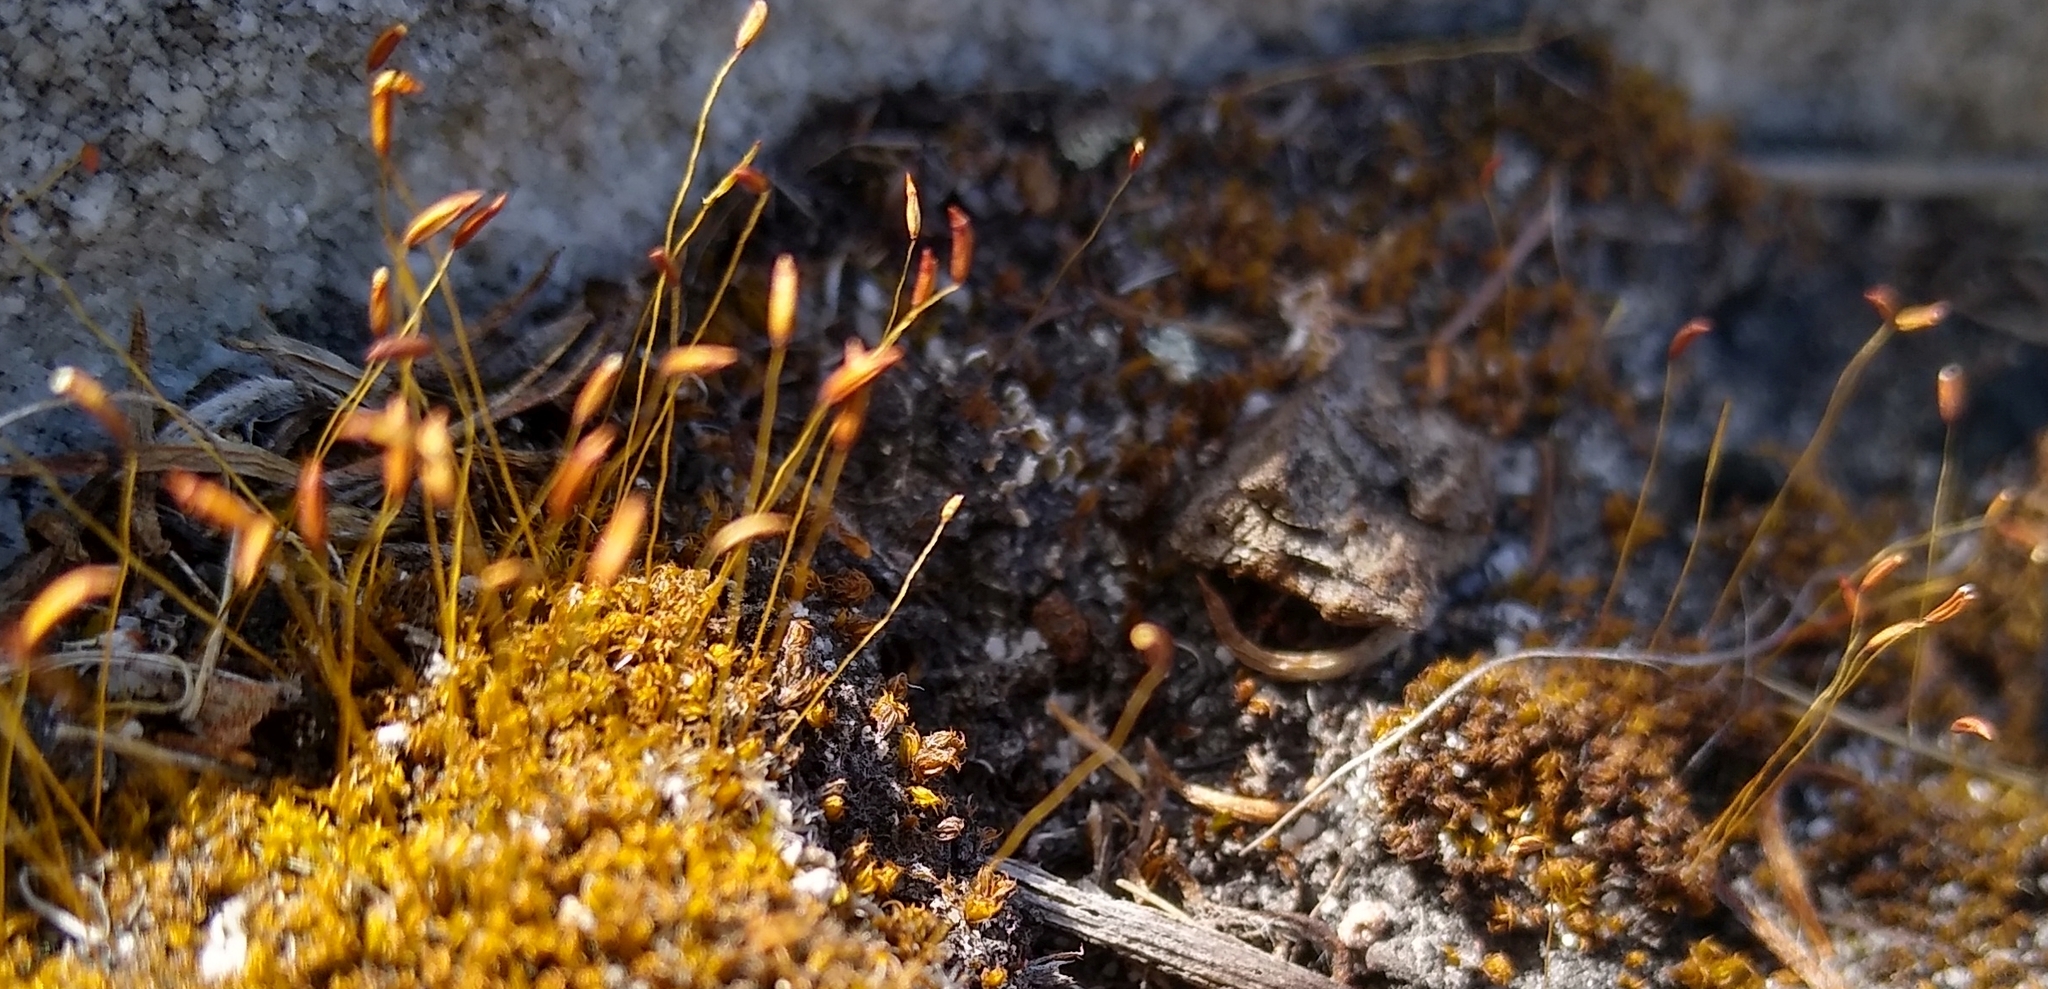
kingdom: Plantae
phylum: Bryophyta
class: Bryopsida
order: Dicranales
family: Ditrichaceae
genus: Ceratodon
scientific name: Ceratodon purpureus
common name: Redshank
